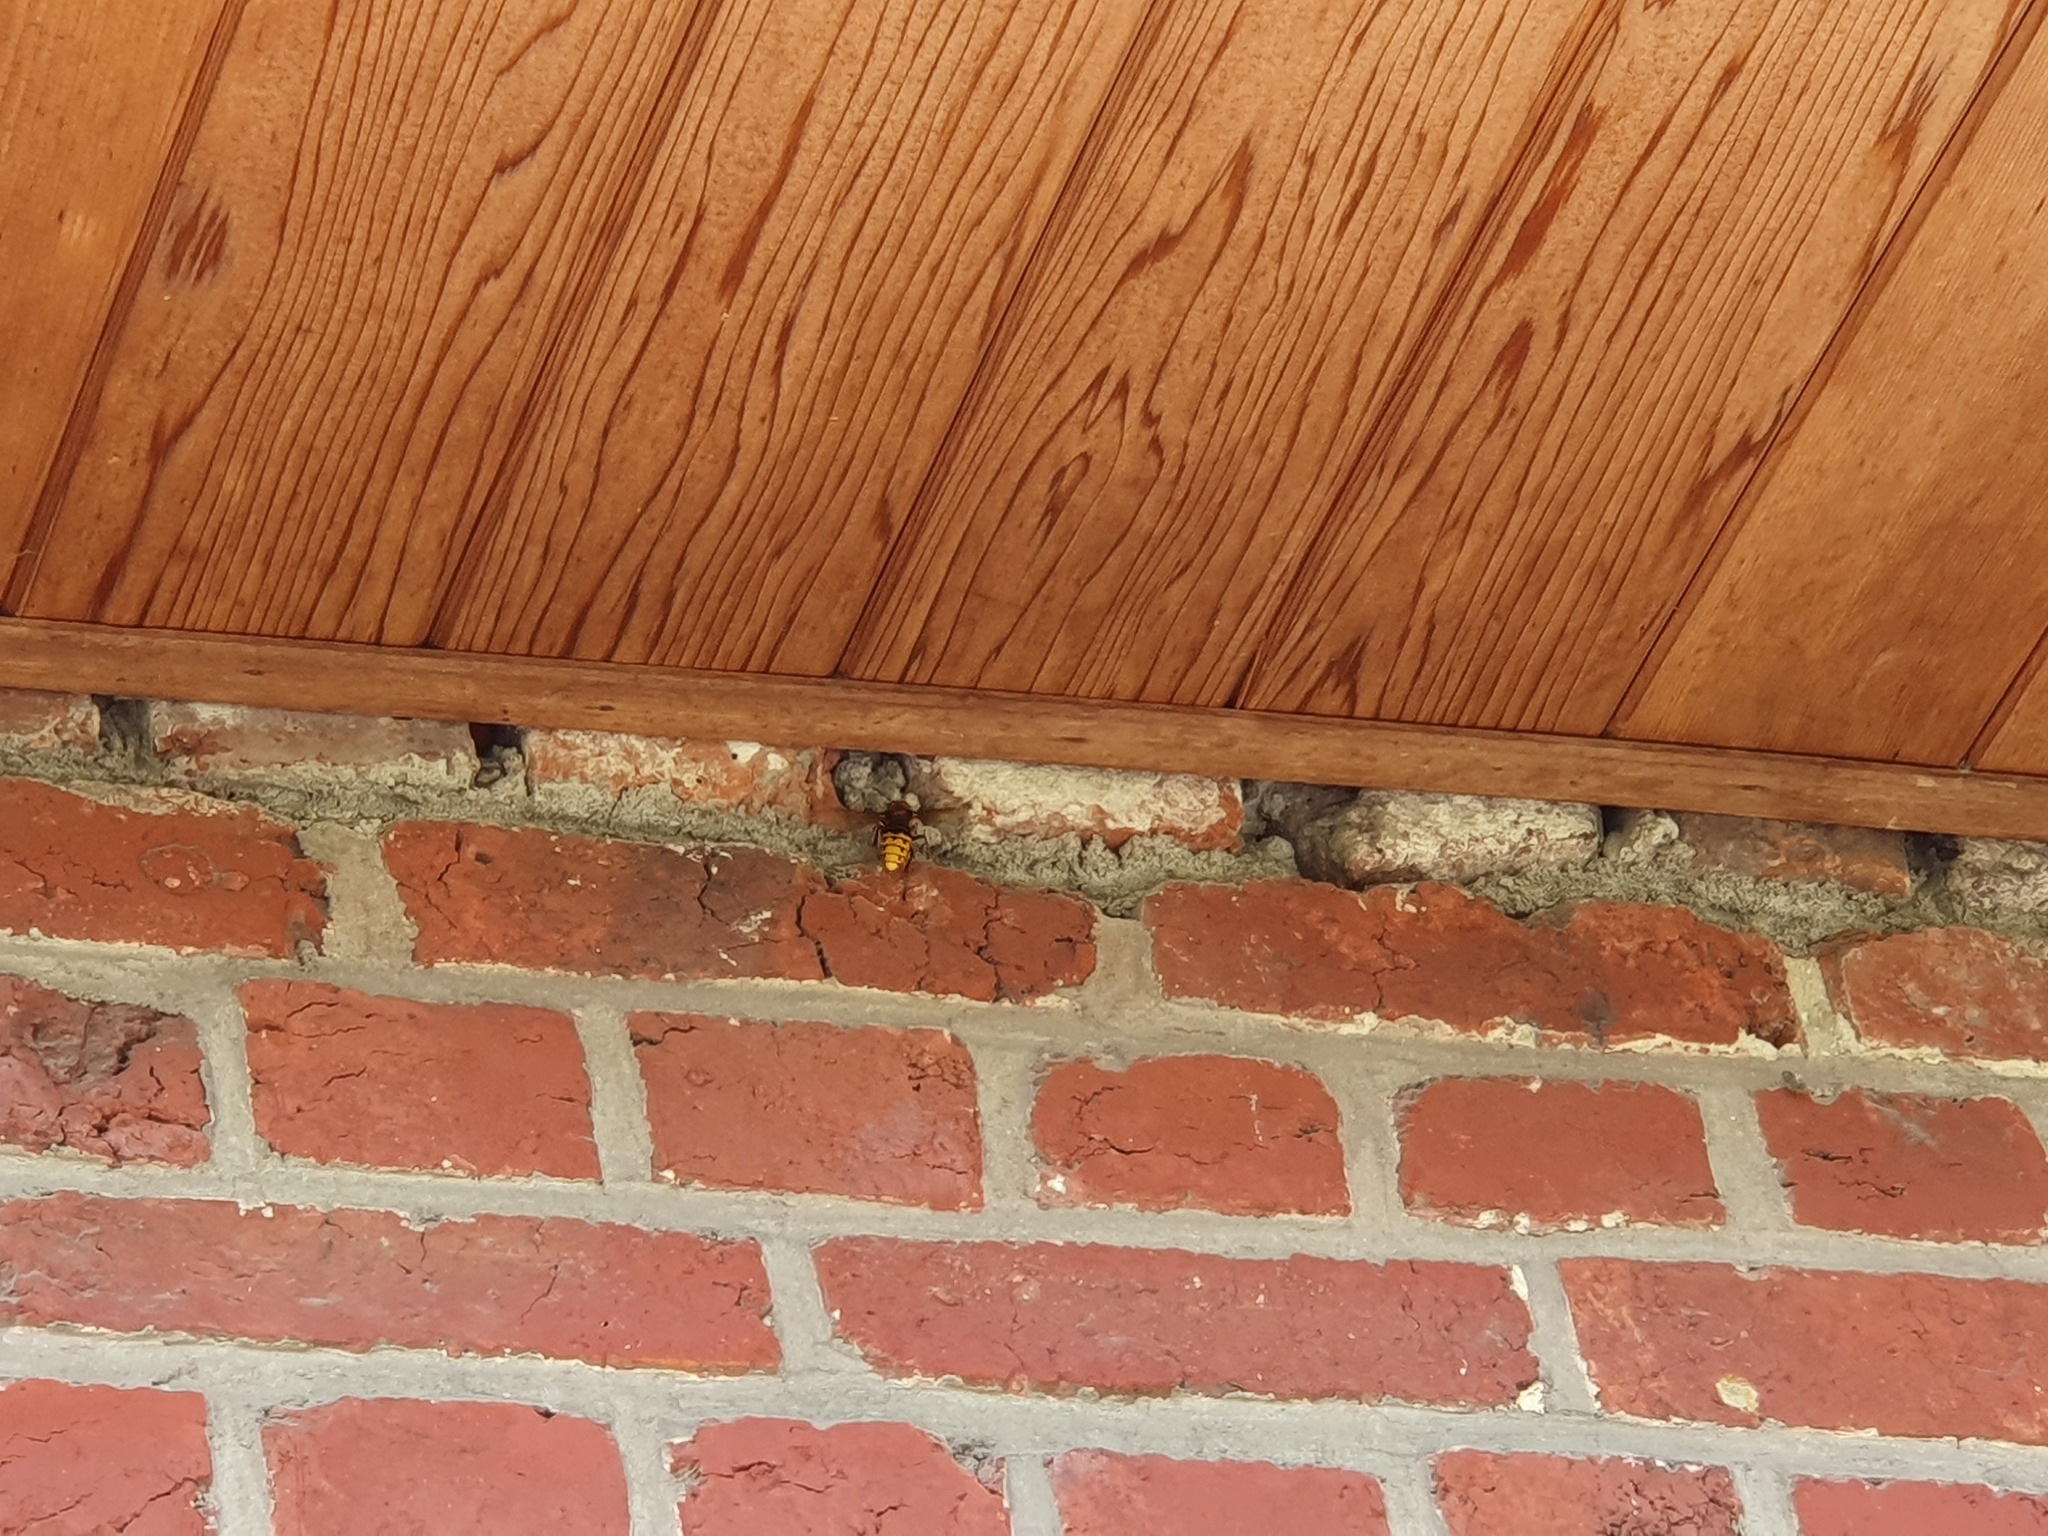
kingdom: Animalia
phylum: Arthropoda
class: Insecta
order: Hymenoptera
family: Vespidae
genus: Vespa
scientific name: Vespa crabro
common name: Hornet
